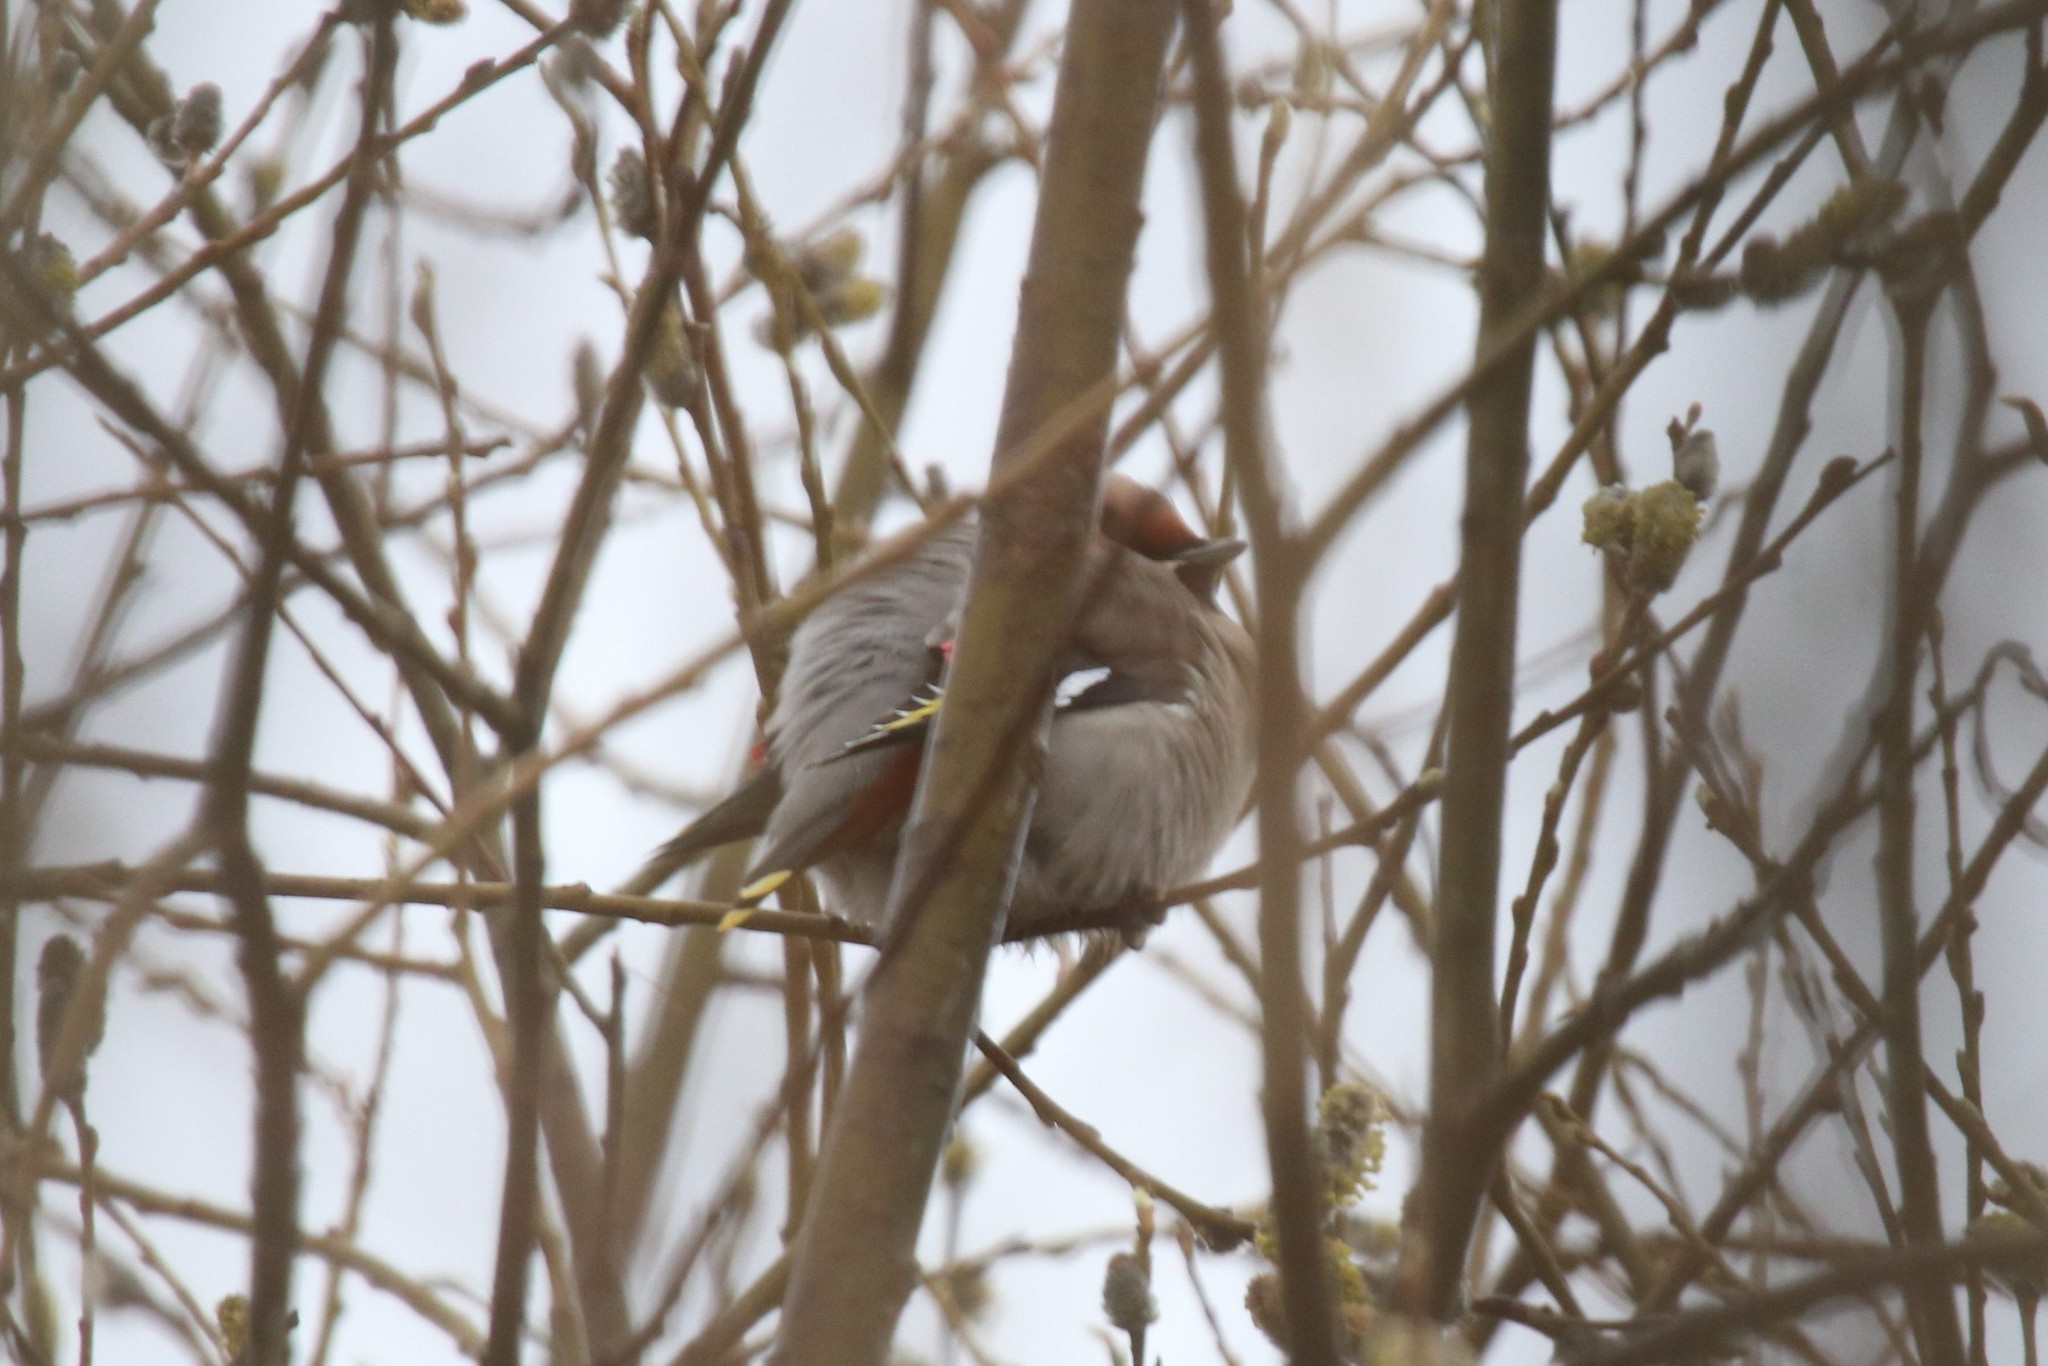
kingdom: Animalia
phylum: Chordata
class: Aves
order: Passeriformes
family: Bombycillidae
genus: Bombycilla
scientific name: Bombycilla garrulus
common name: Bohemian waxwing
